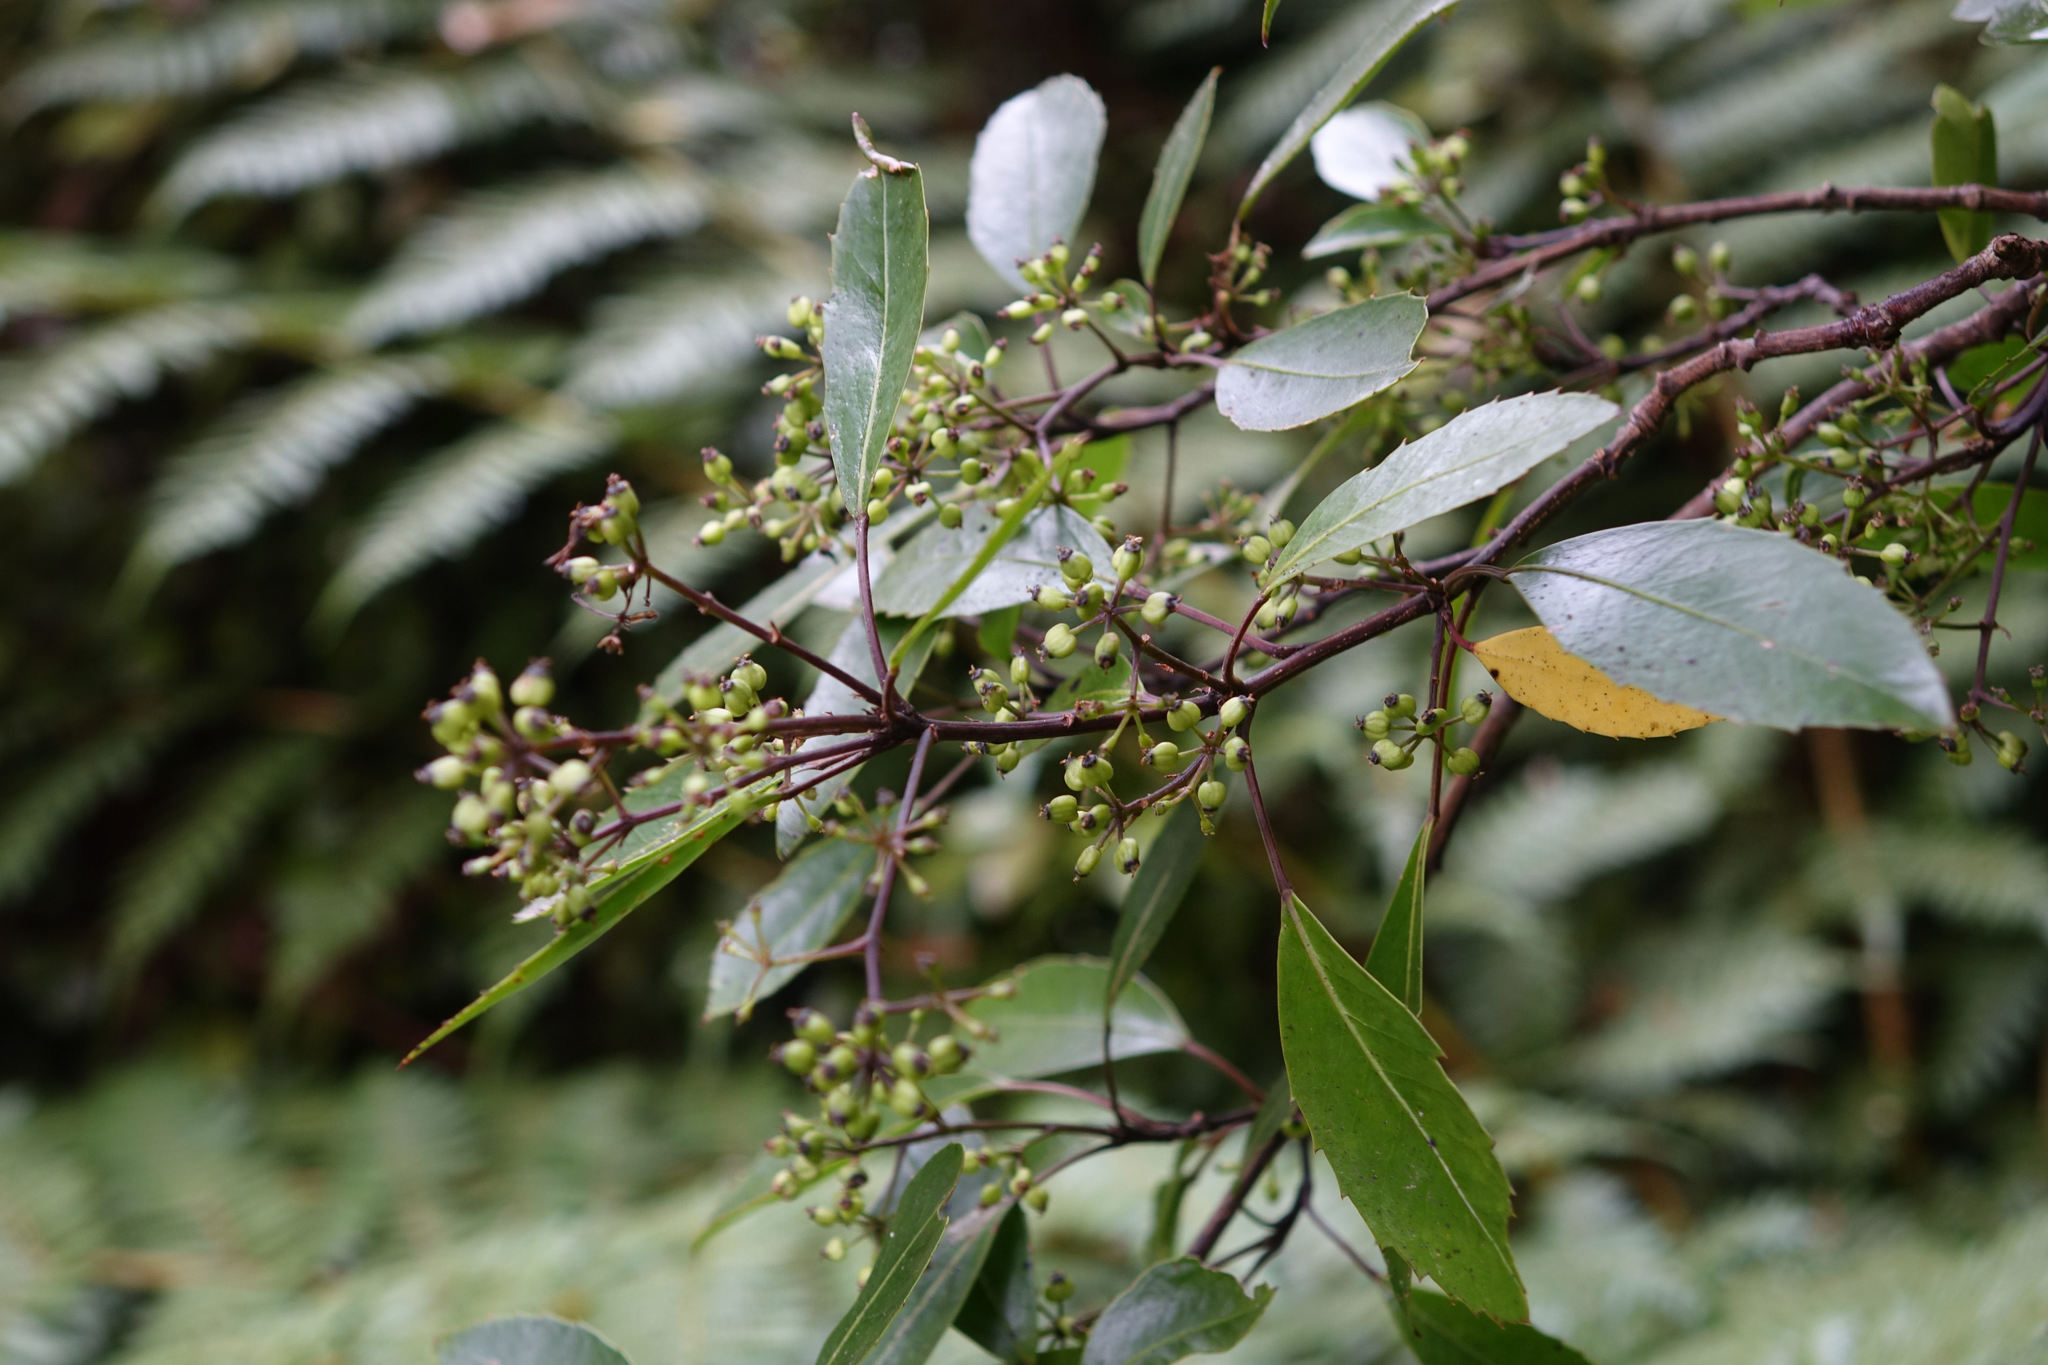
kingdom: Plantae
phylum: Tracheophyta
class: Magnoliopsida
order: Apiales
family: Araliaceae
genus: Raukaua
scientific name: Raukaua simplex
